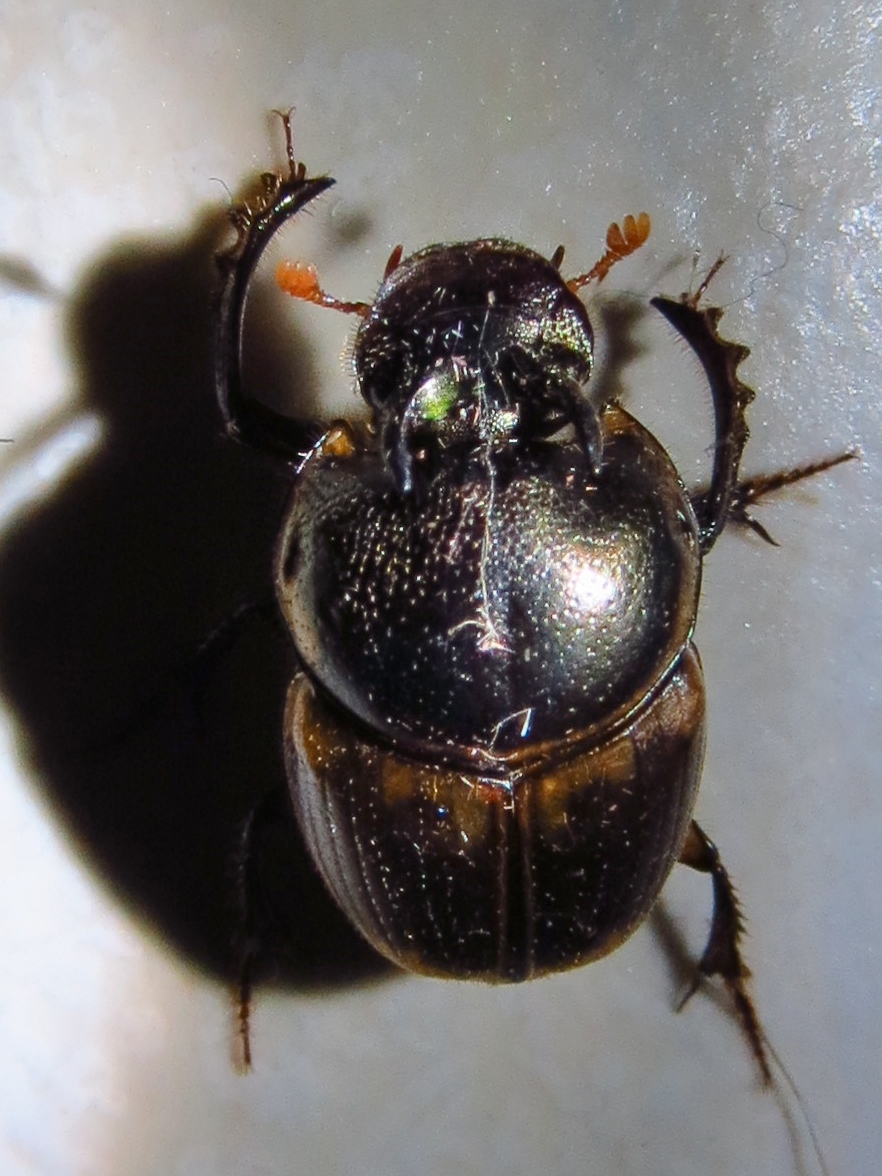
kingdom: Animalia
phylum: Arthropoda
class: Insecta
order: Coleoptera
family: Scarabaeidae
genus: Digitonthophagus
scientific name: Digitonthophagus gazella
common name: Brown dung beetle
